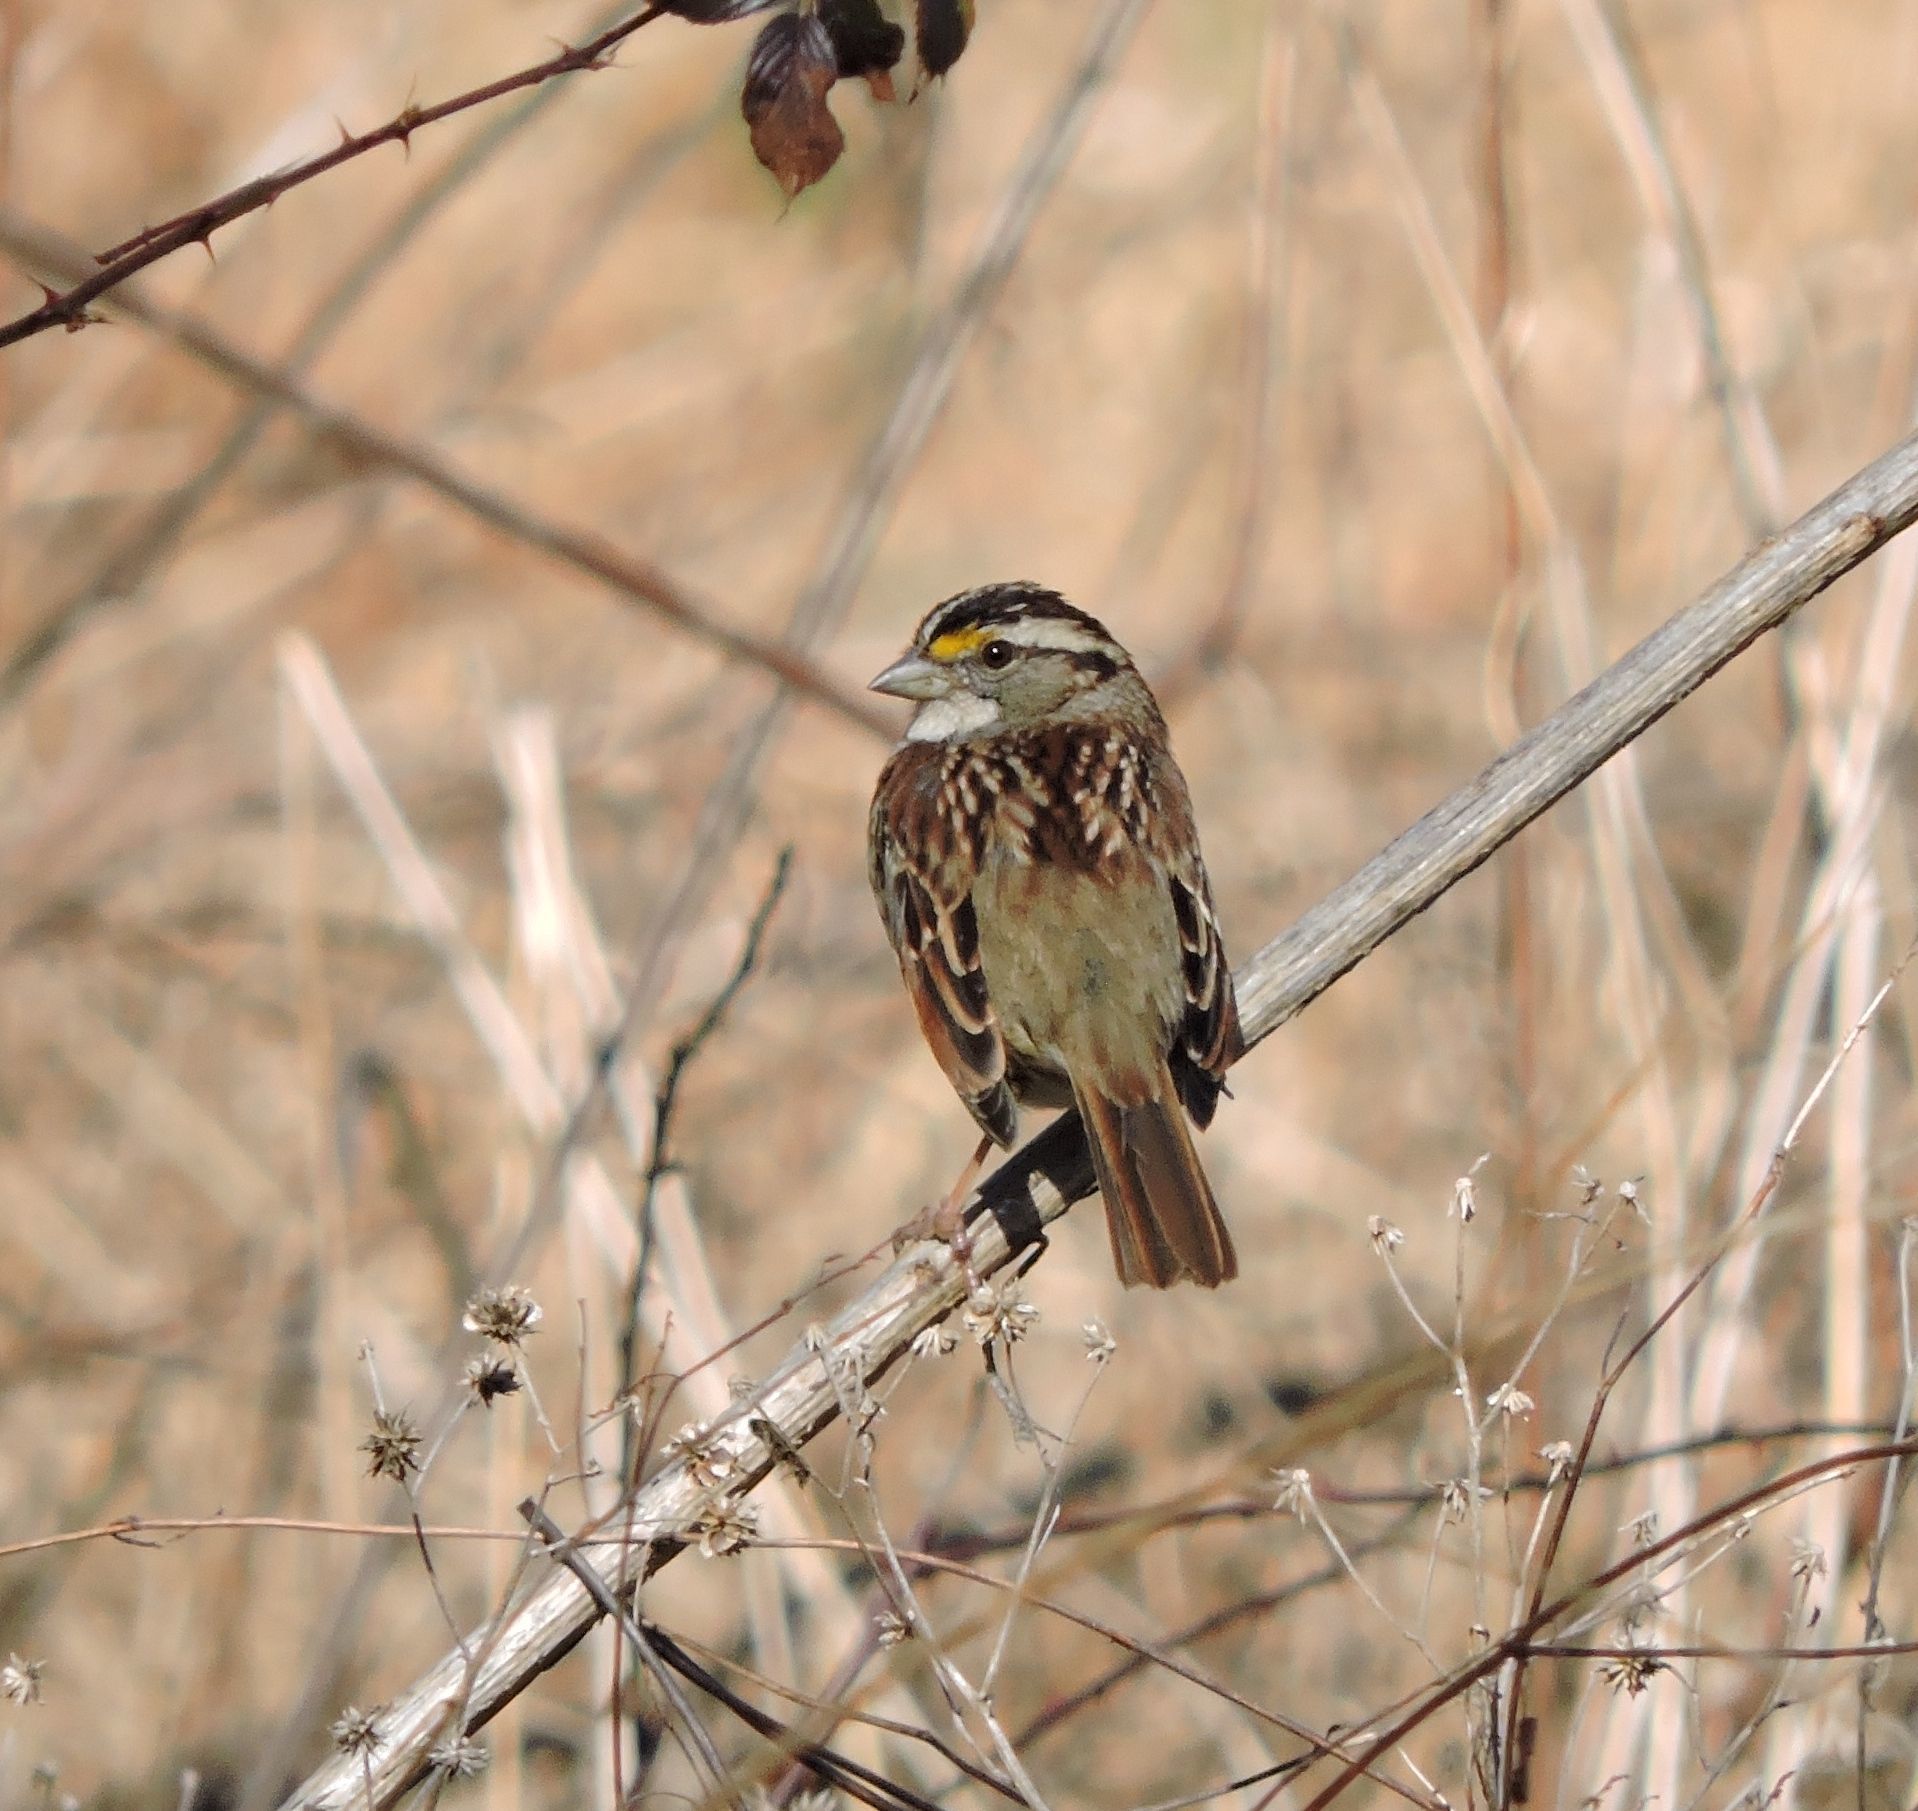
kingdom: Animalia
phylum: Chordata
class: Aves
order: Passeriformes
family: Passerellidae
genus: Zonotrichia
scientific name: Zonotrichia albicollis
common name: White-throated sparrow
